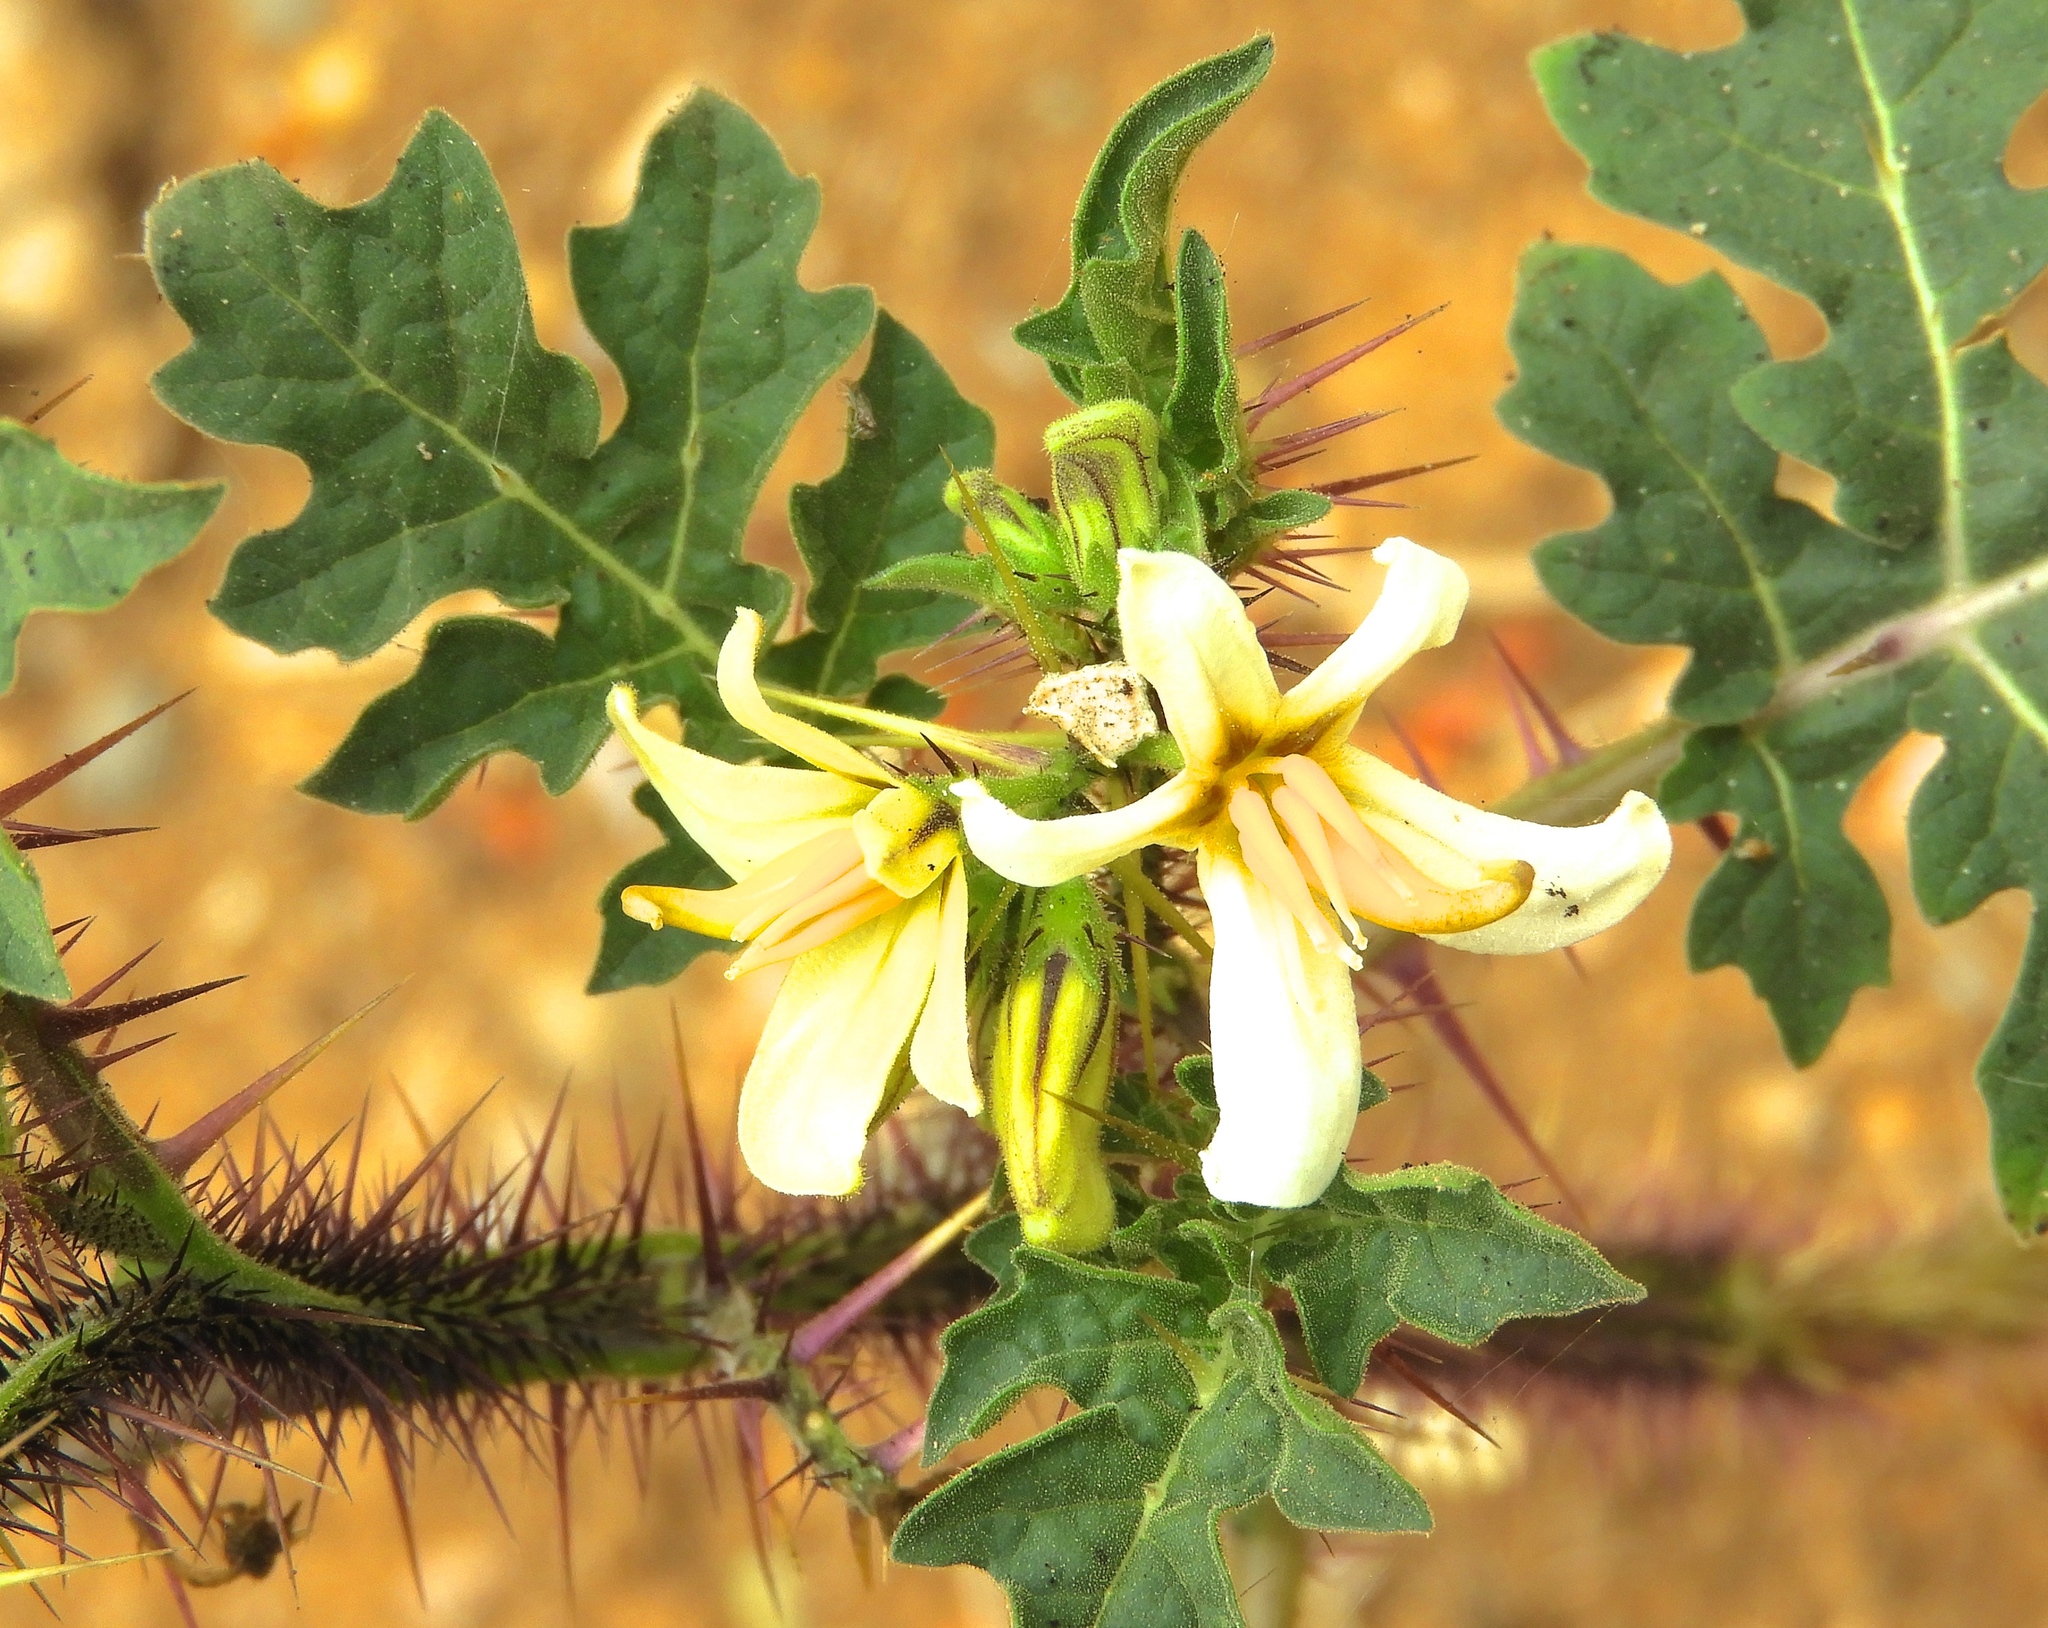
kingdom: Plantae
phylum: Tracheophyta
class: Magnoliopsida
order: Solanales
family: Solanaceae
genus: Solanum
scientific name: Solanum grayi
